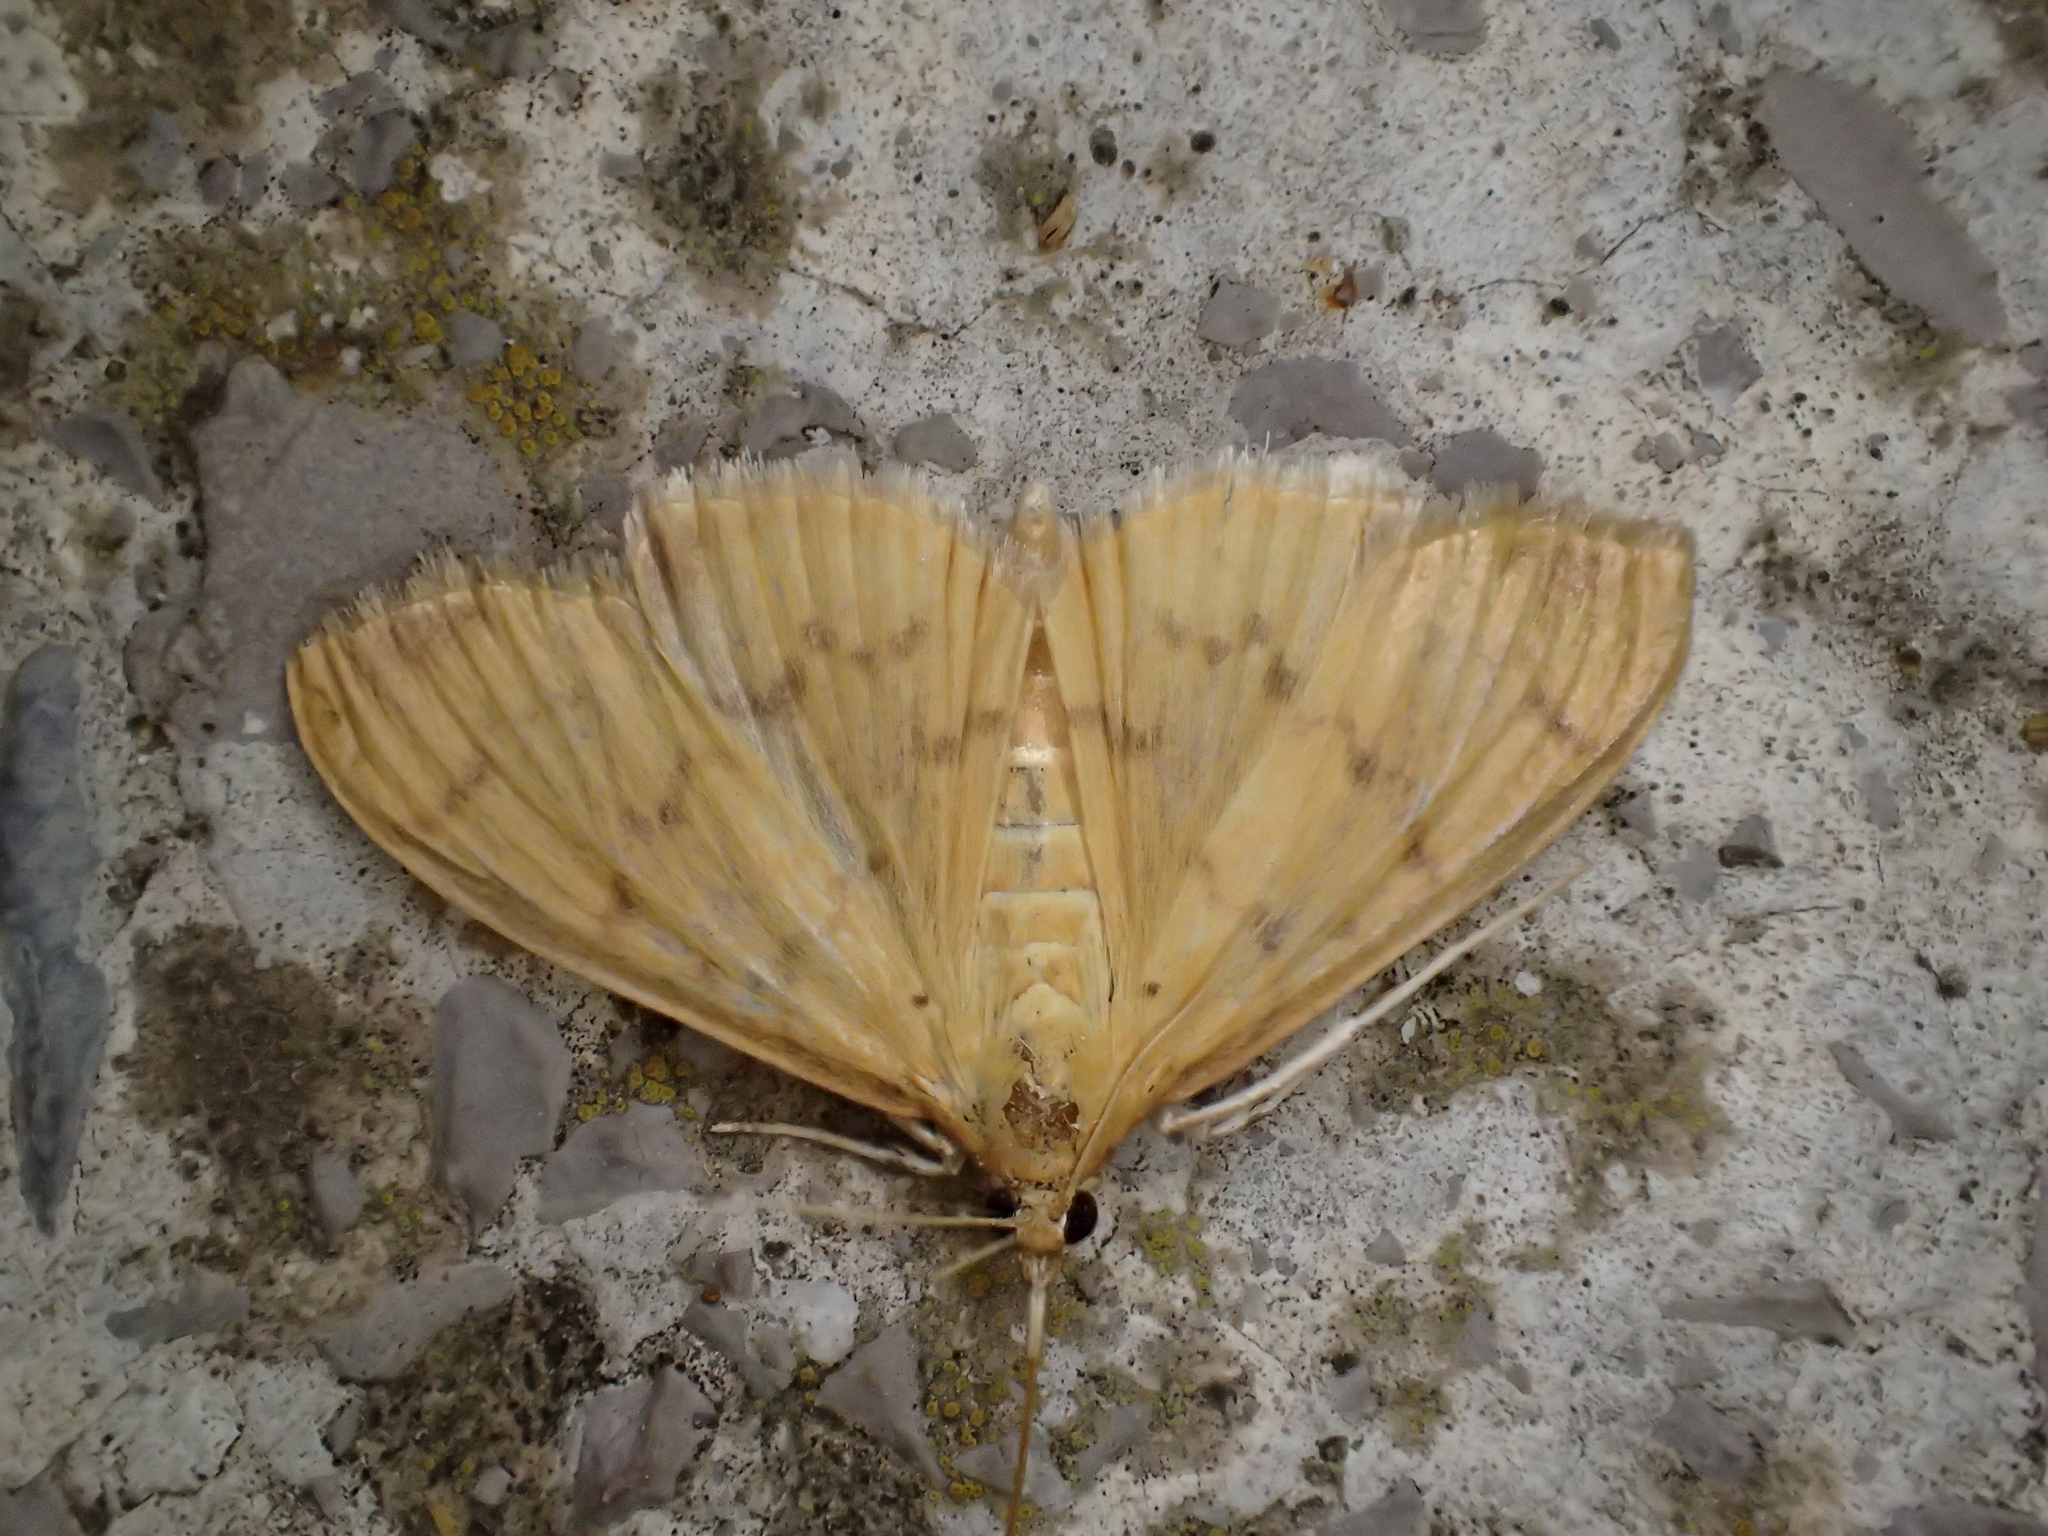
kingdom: Animalia
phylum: Arthropoda
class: Insecta
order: Lepidoptera
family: Crambidae
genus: Pleuroptya
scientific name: Pleuroptya balteata
